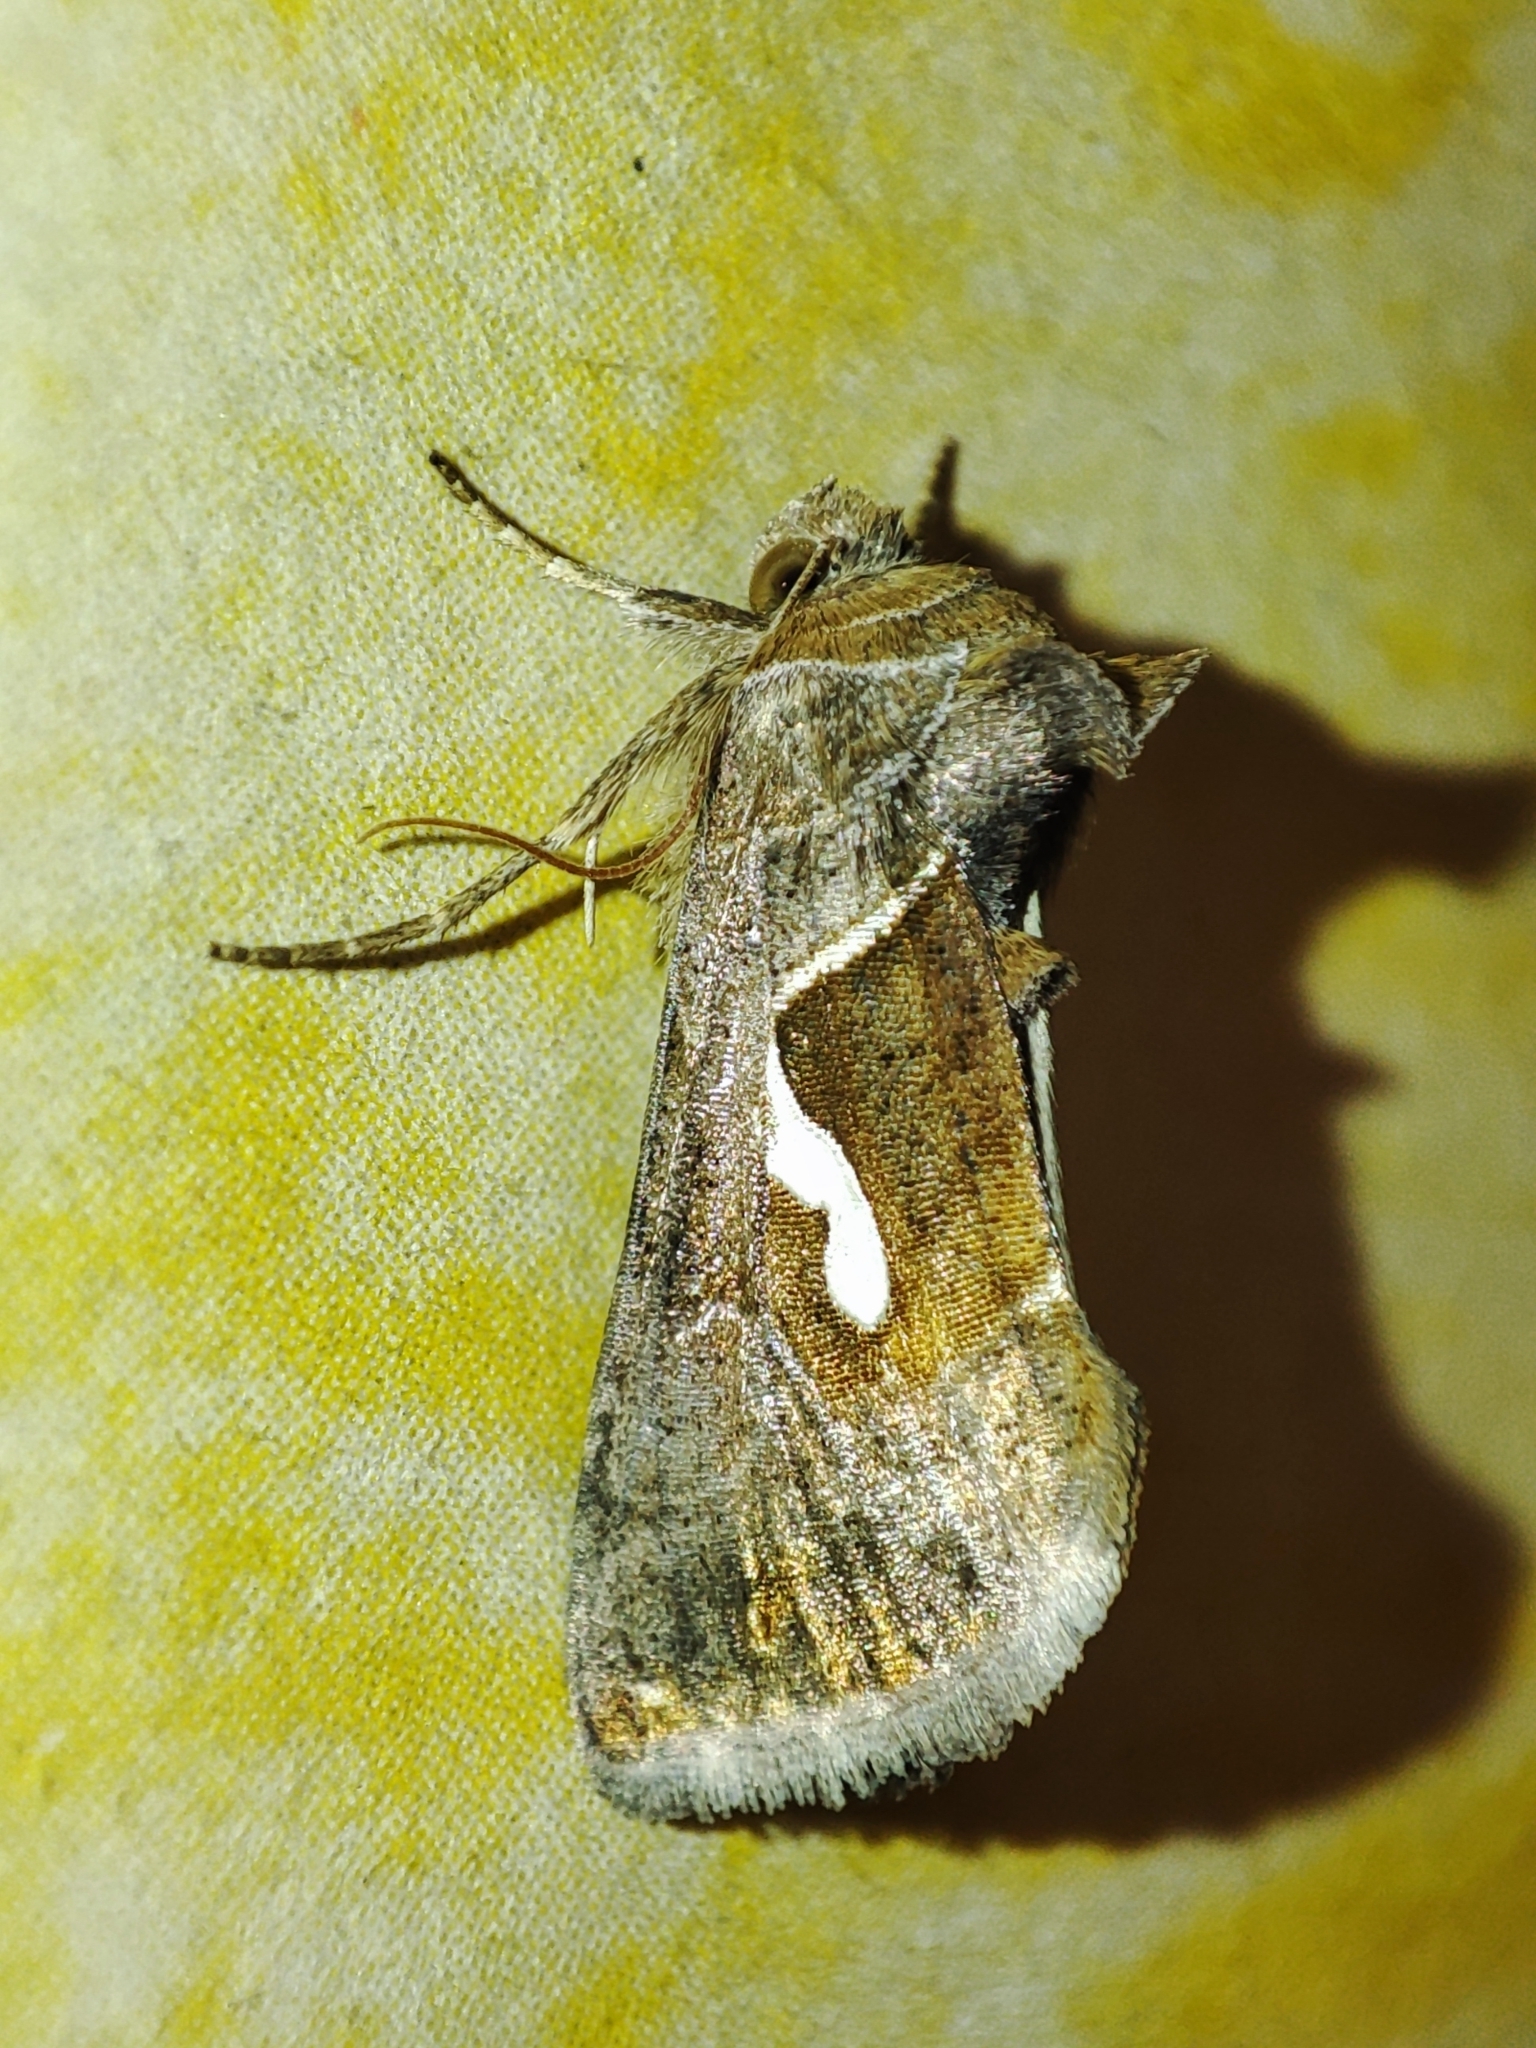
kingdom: Animalia
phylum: Arthropoda
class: Insecta
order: Lepidoptera
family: Noctuidae
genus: Macdunnoughia
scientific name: Macdunnoughia confusa
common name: Dewick's plusia
